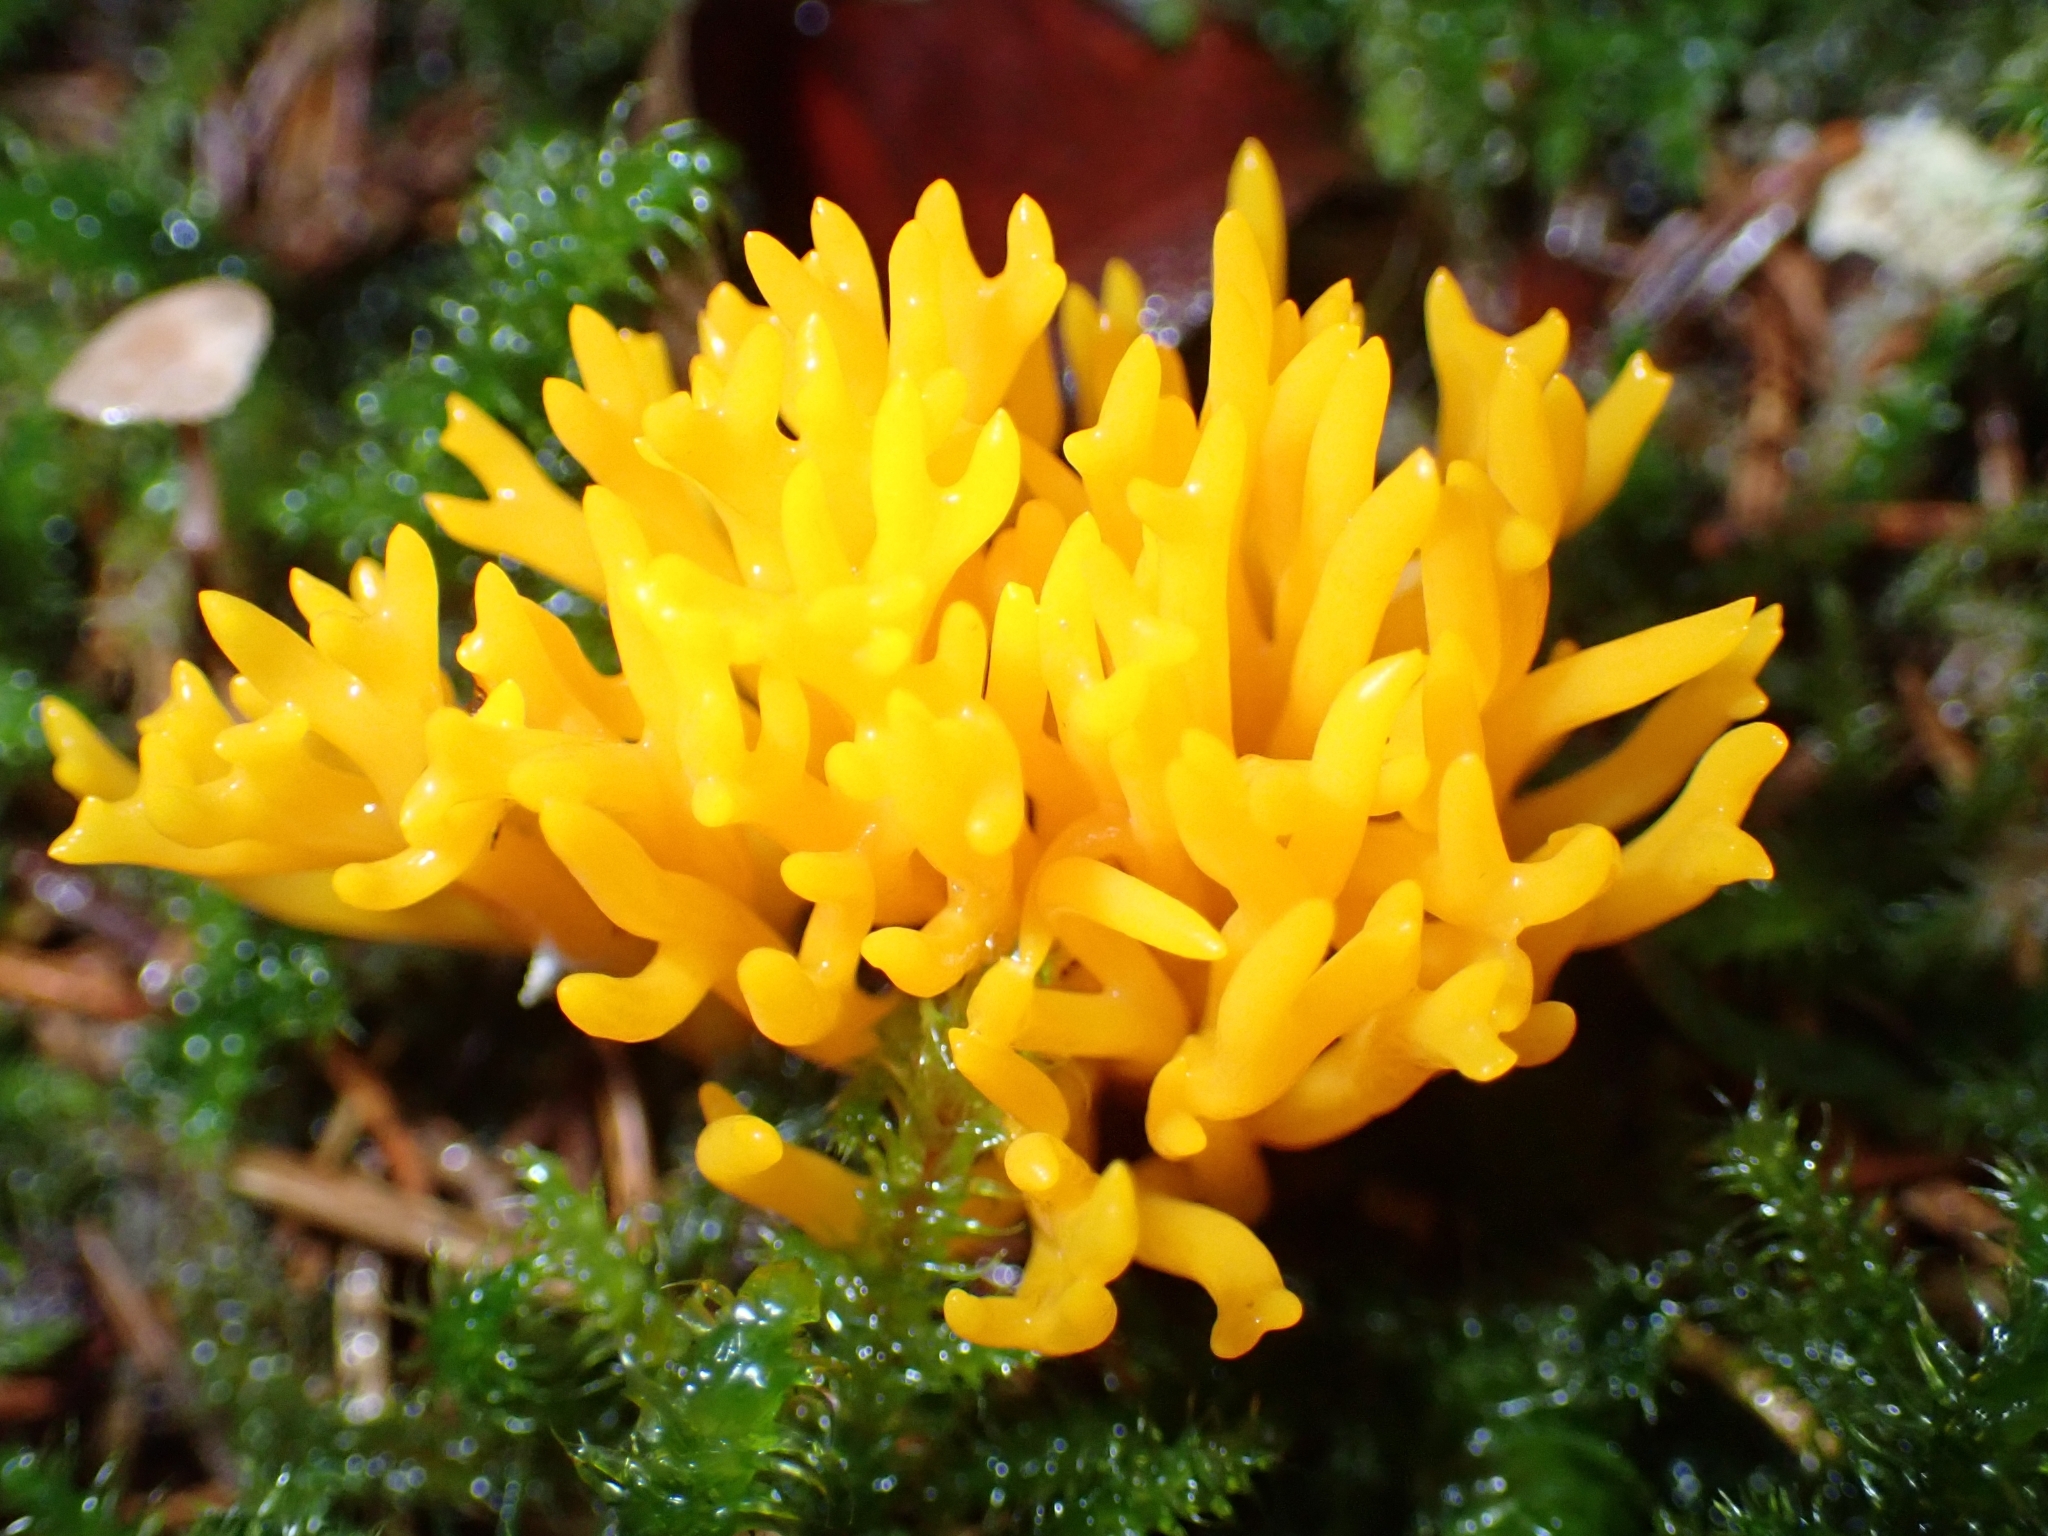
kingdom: Fungi
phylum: Basidiomycota
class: Dacrymycetes
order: Dacrymycetales
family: Dacrymycetaceae
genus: Calocera
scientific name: Calocera viscosa
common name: Yellow stagshorn
